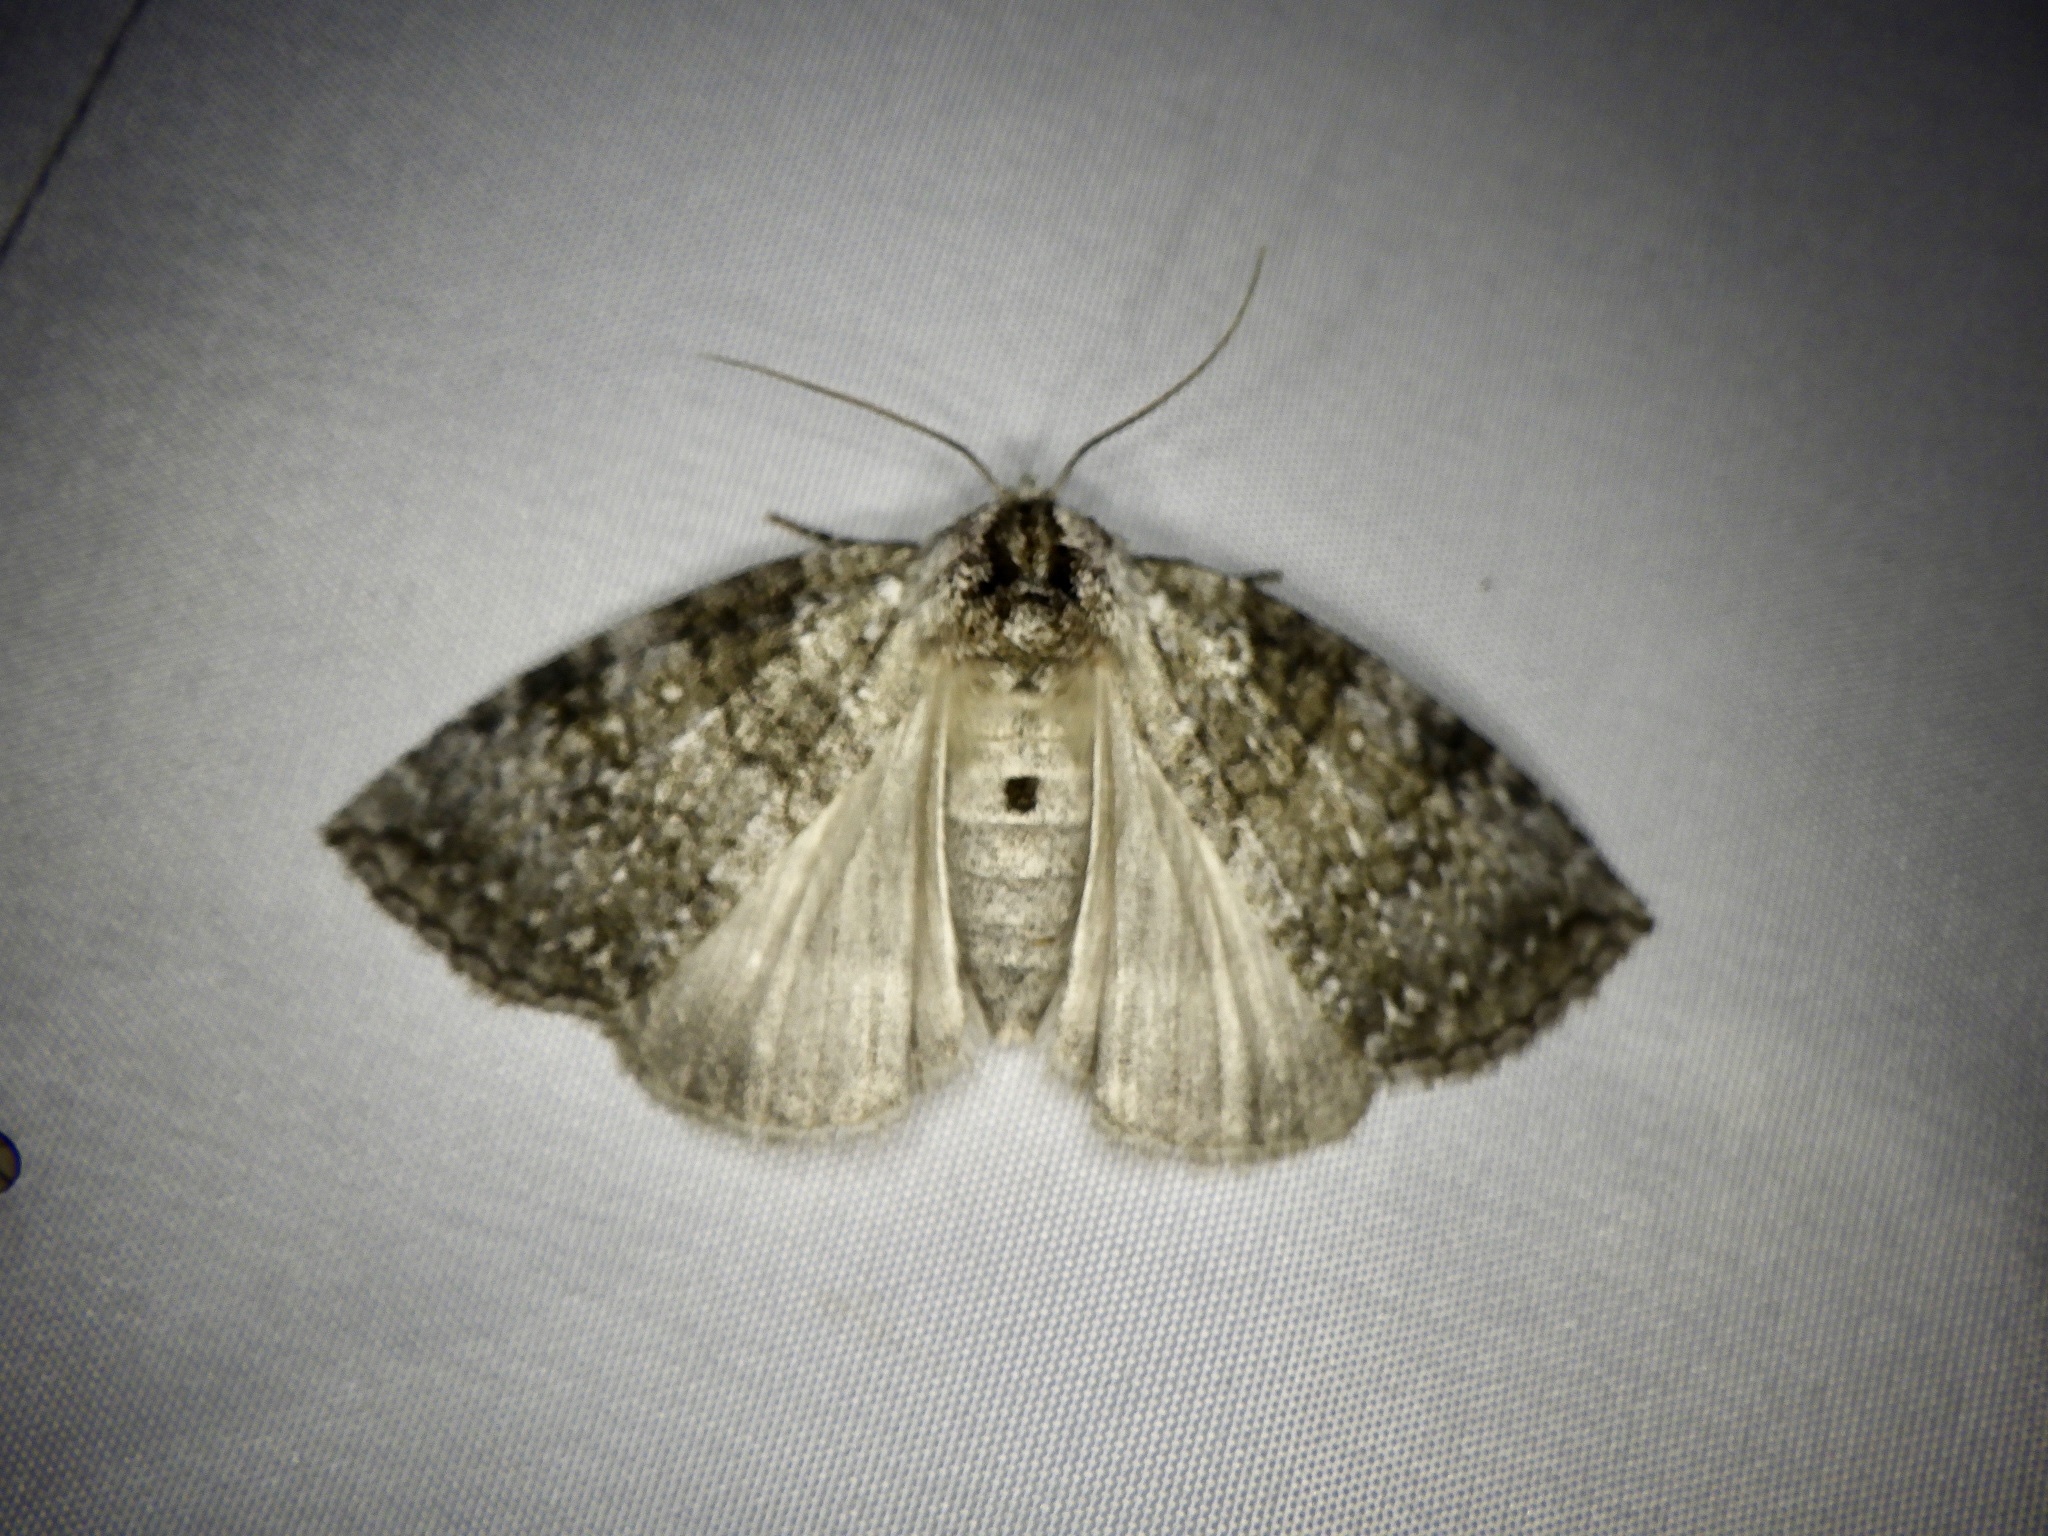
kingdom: Animalia
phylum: Arthropoda
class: Insecta
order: Lepidoptera
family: Drepanidae
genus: Parapsestis
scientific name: Parapsestis argenteopicta
